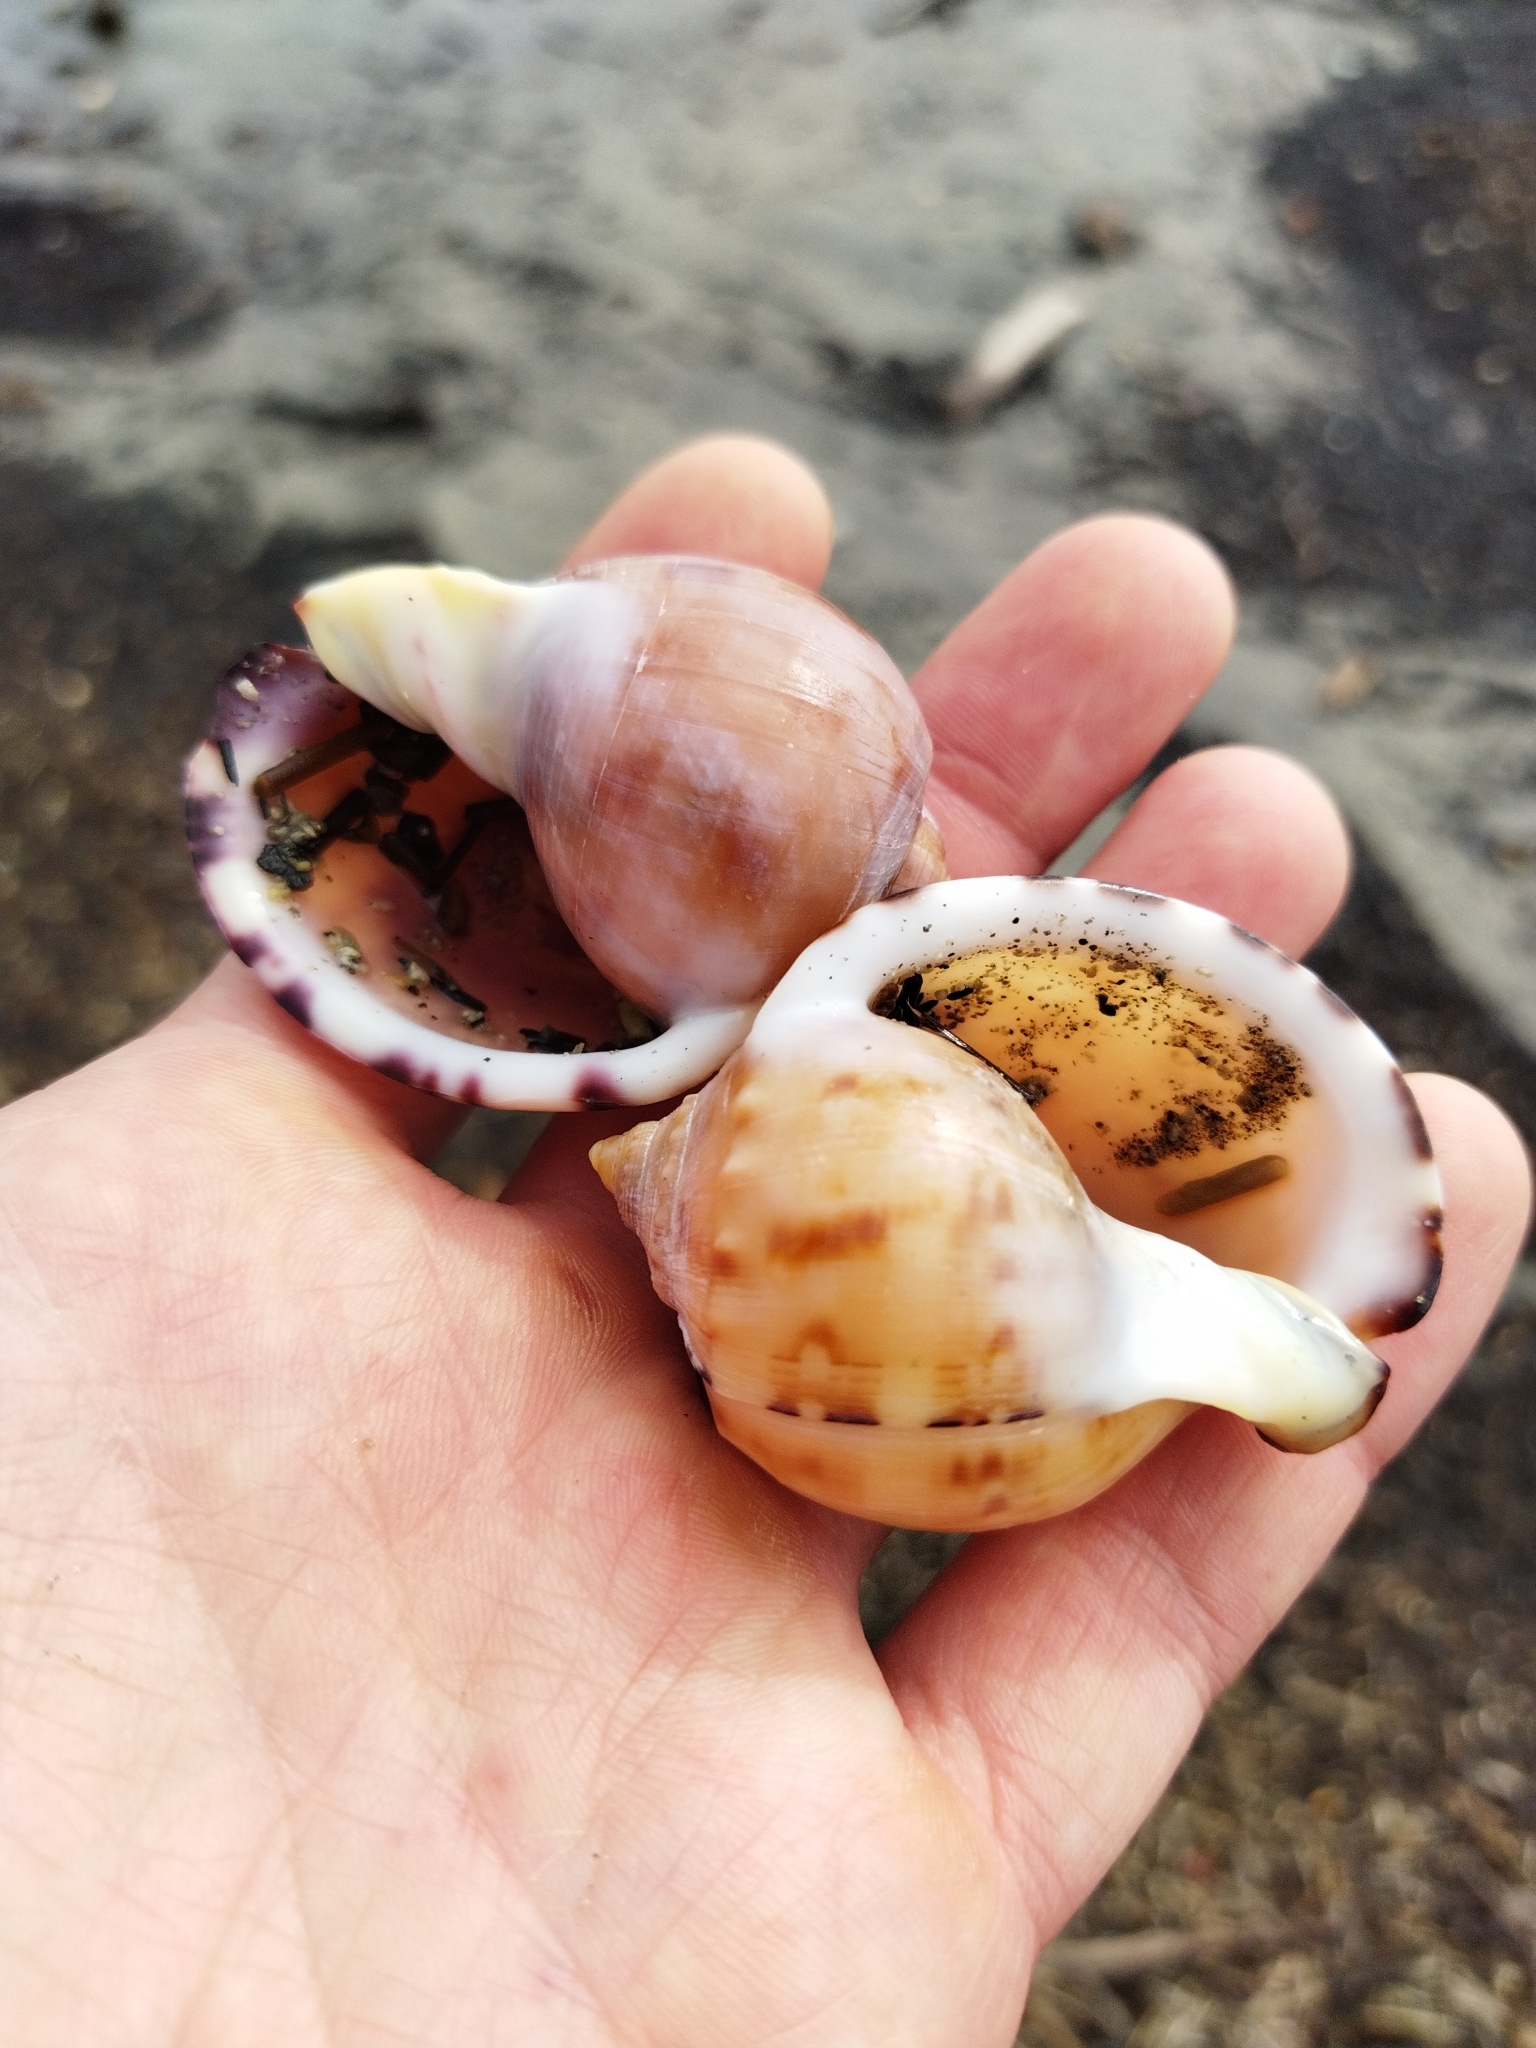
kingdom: Animalia
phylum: Mollusca
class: Gastropoda
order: Littorinimorpha
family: Cassidae
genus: Semicassis
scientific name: Semicassis pyrum
